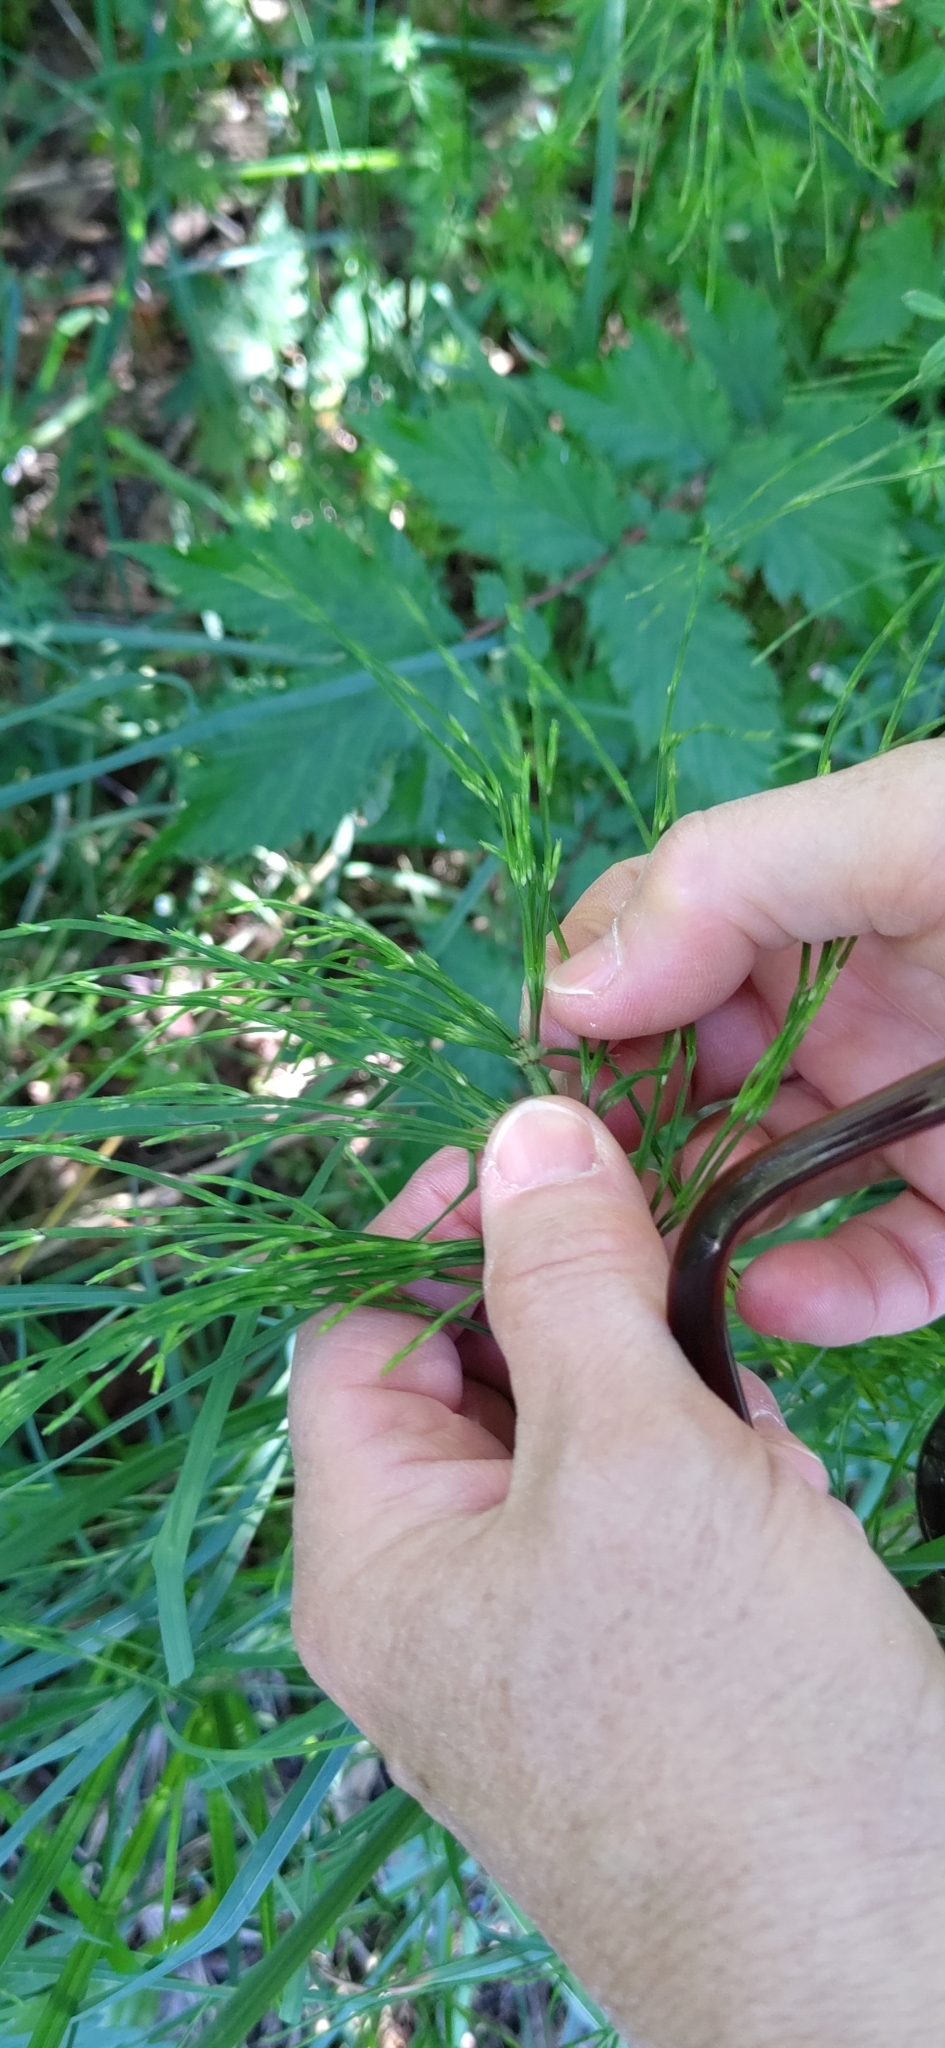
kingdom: Plantae
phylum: Tracheophyta
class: Polypodiopsida
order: Equisetales
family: Equisetaceae
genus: Equisetum
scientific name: Equisetum arvense
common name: Field horsetail
